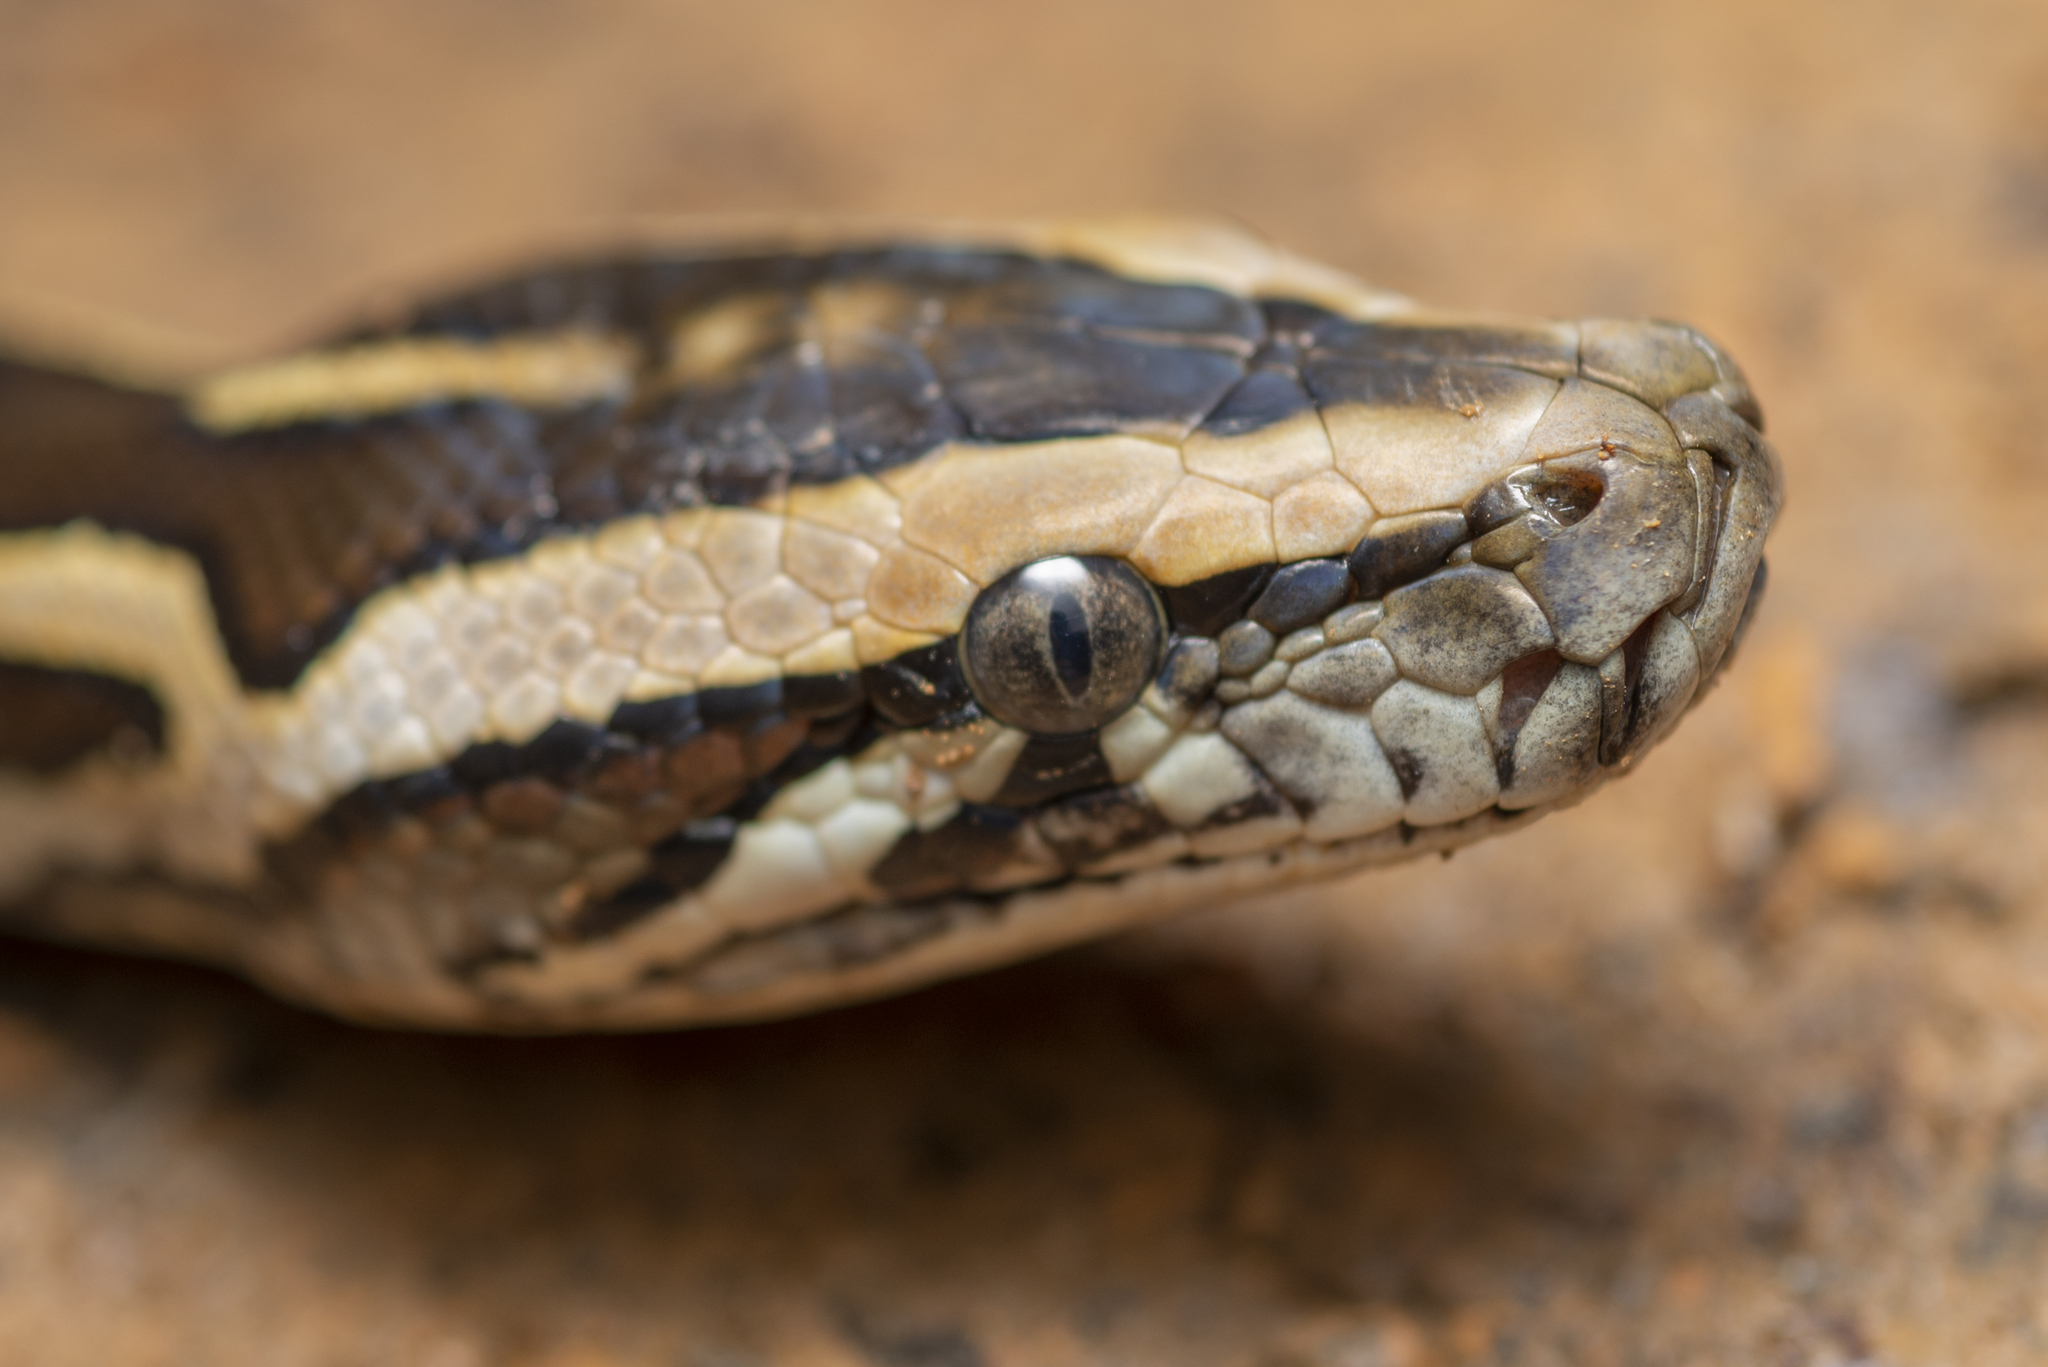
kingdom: Animalia
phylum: Chordata
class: Squamata
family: Pythonidae
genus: Python
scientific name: Python bivittatus
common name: Burmese python
